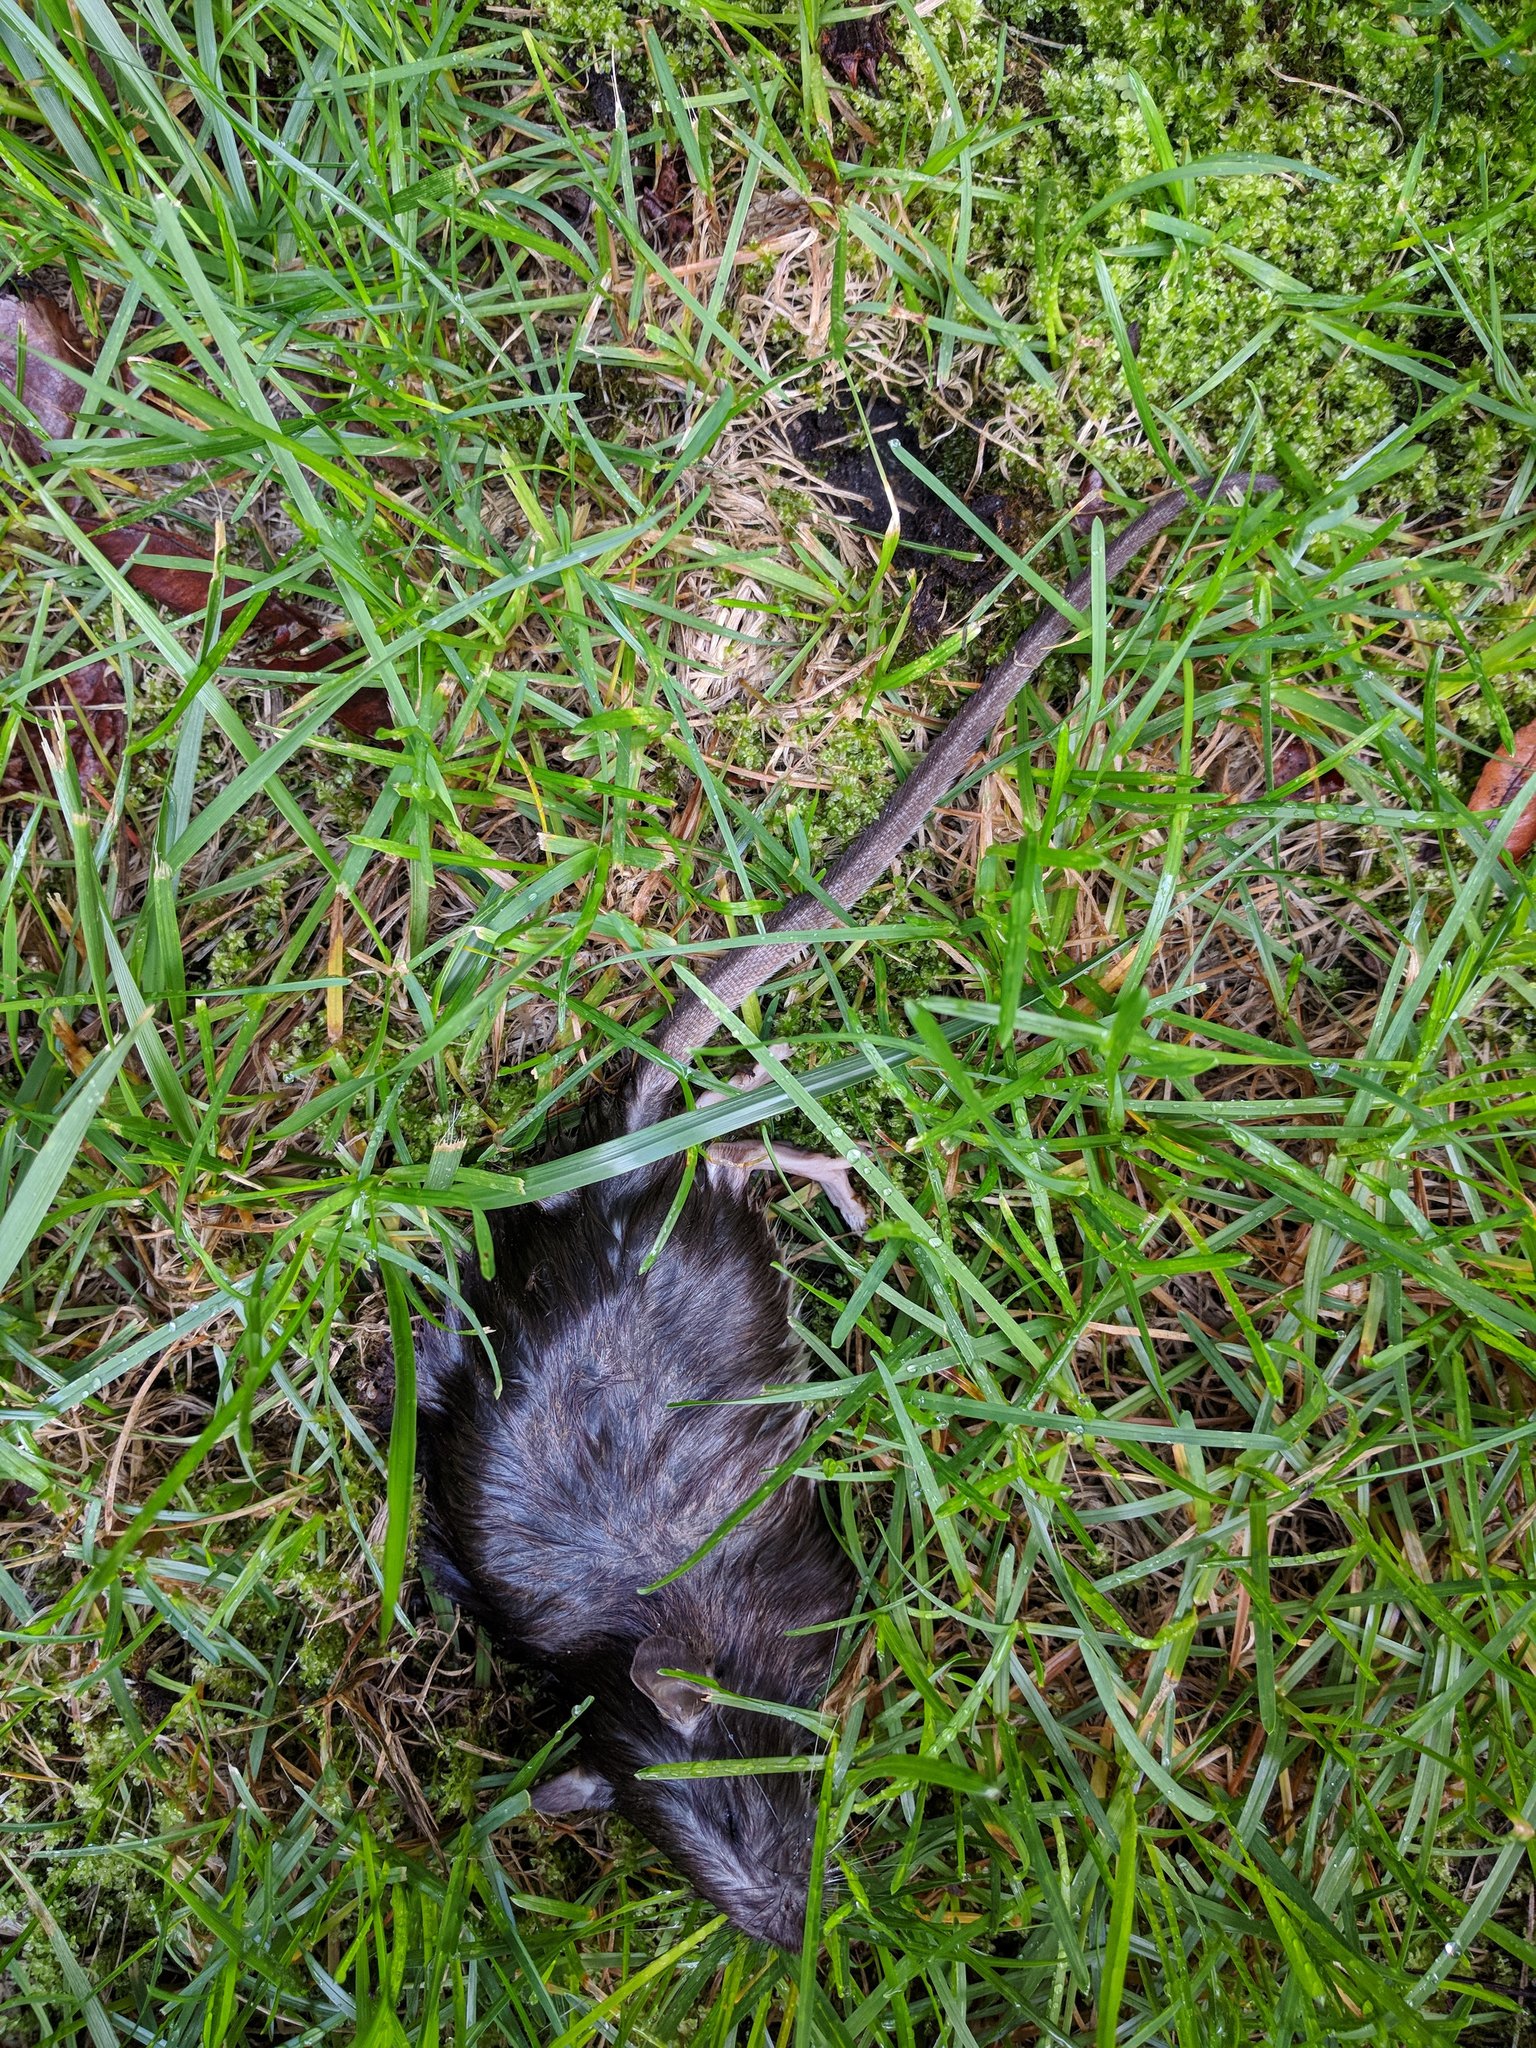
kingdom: Animalia
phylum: Chordata
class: Mammalia
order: Rodentia
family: Muridae
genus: Rattus
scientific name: Rattus norvegicus
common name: Brown rat
